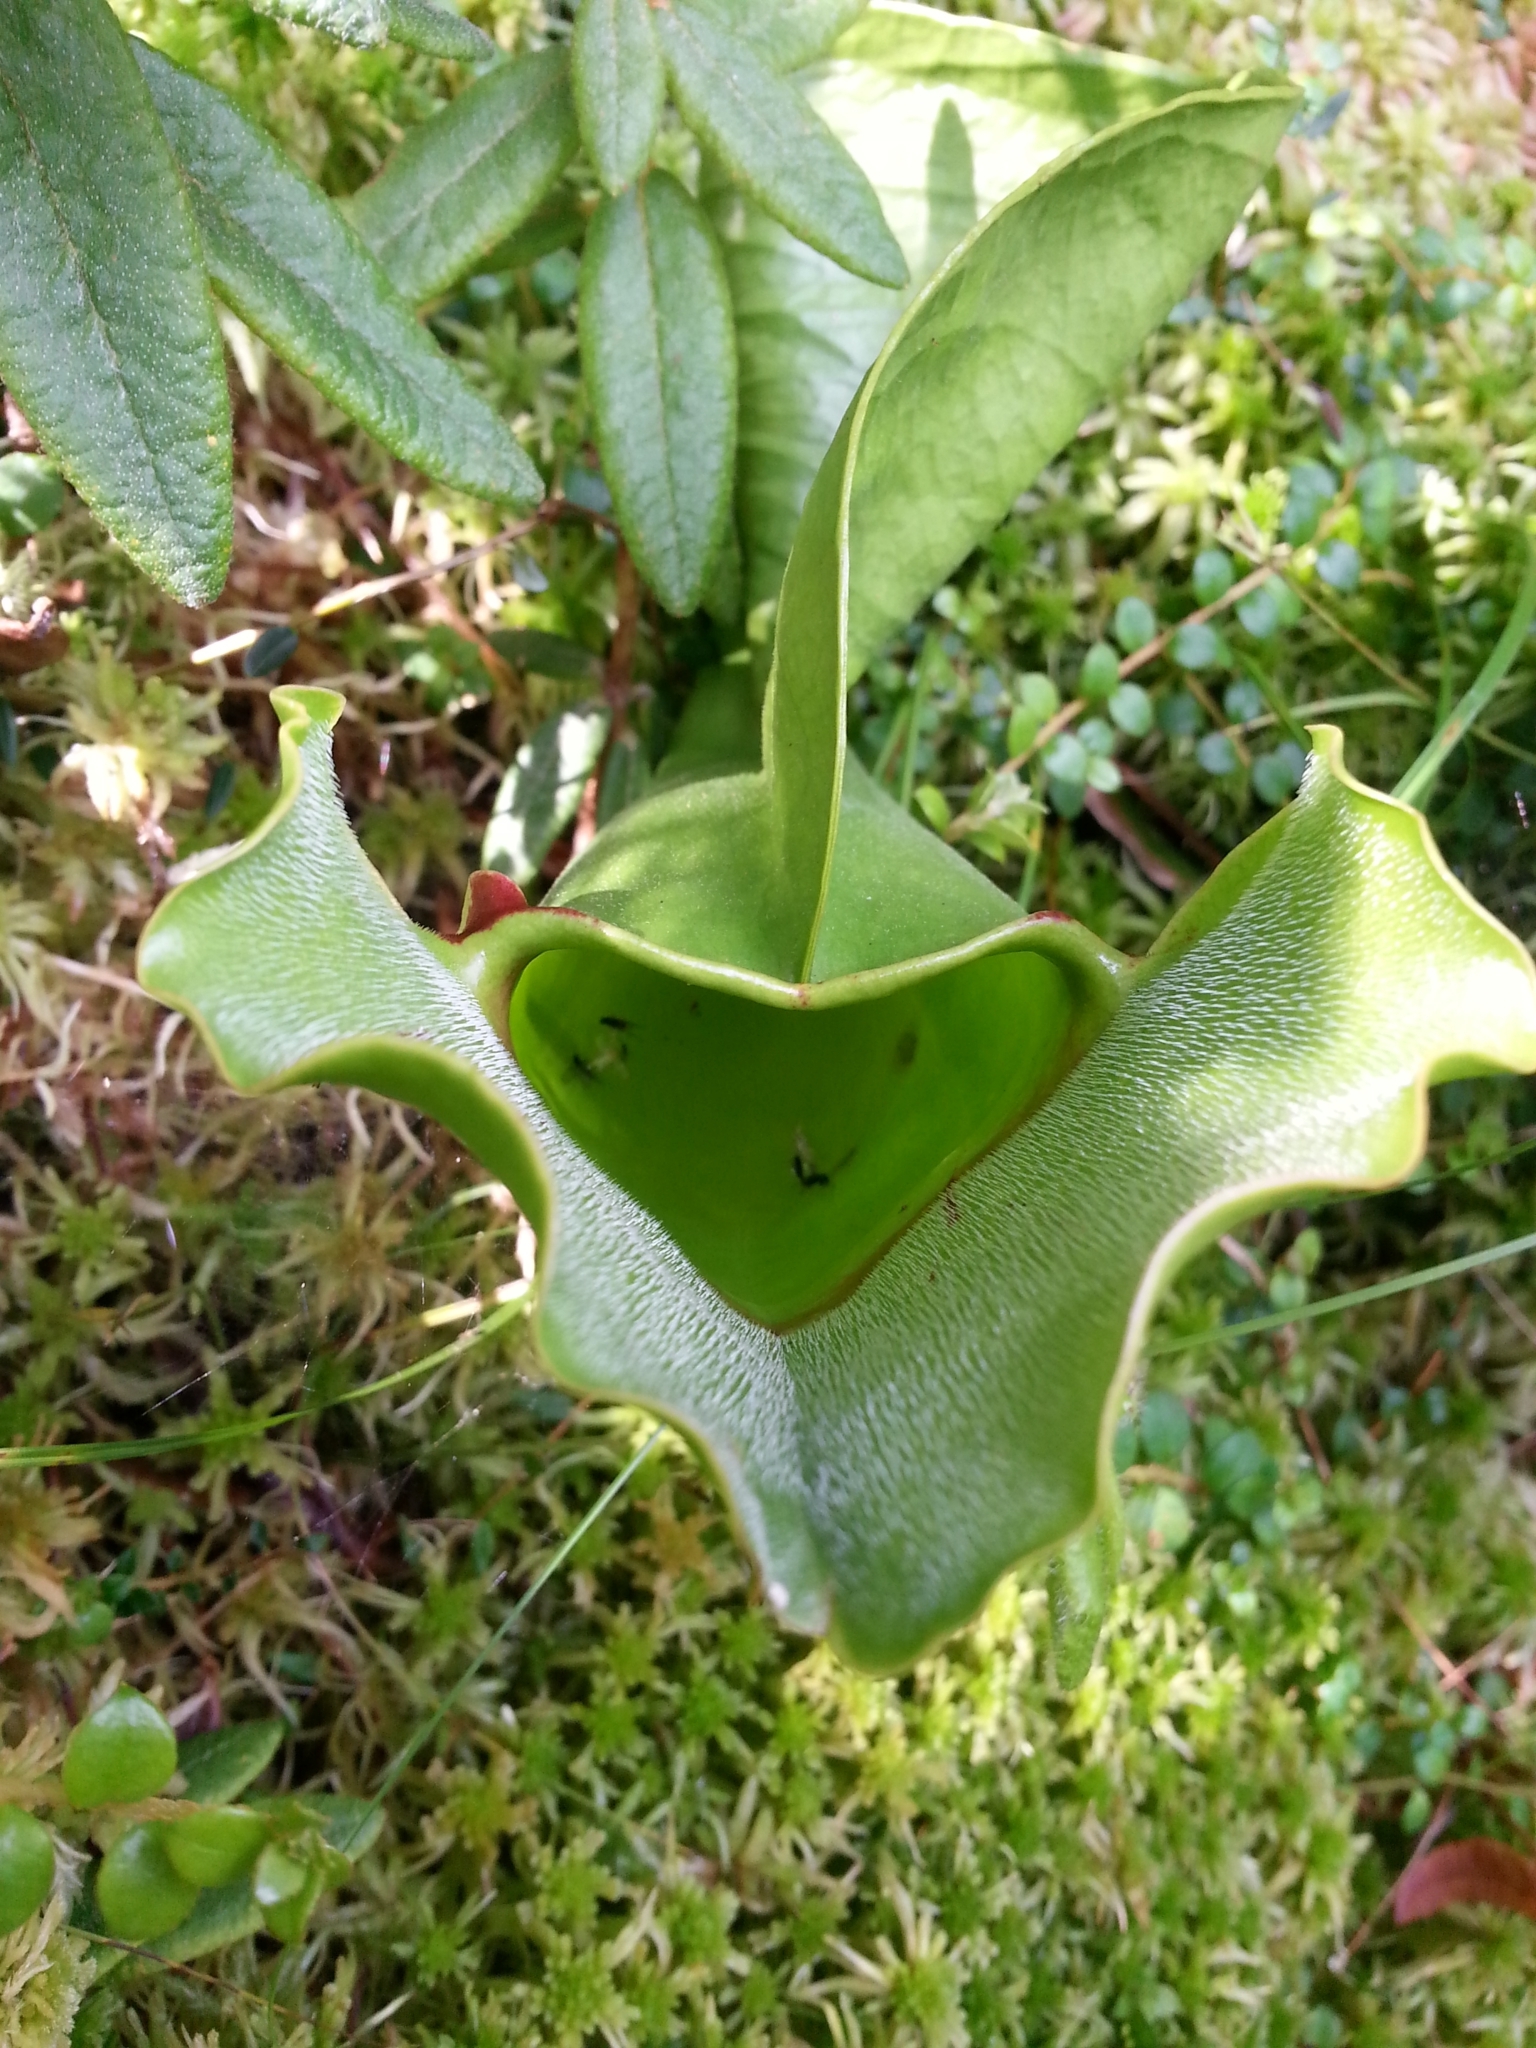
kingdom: Plantae
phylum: Tracheophyta
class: Magnoliopsida
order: Ericales
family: Sarraceniaceae
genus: Sarracenia
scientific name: Sarracenia purpurea
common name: Pitcherplant
